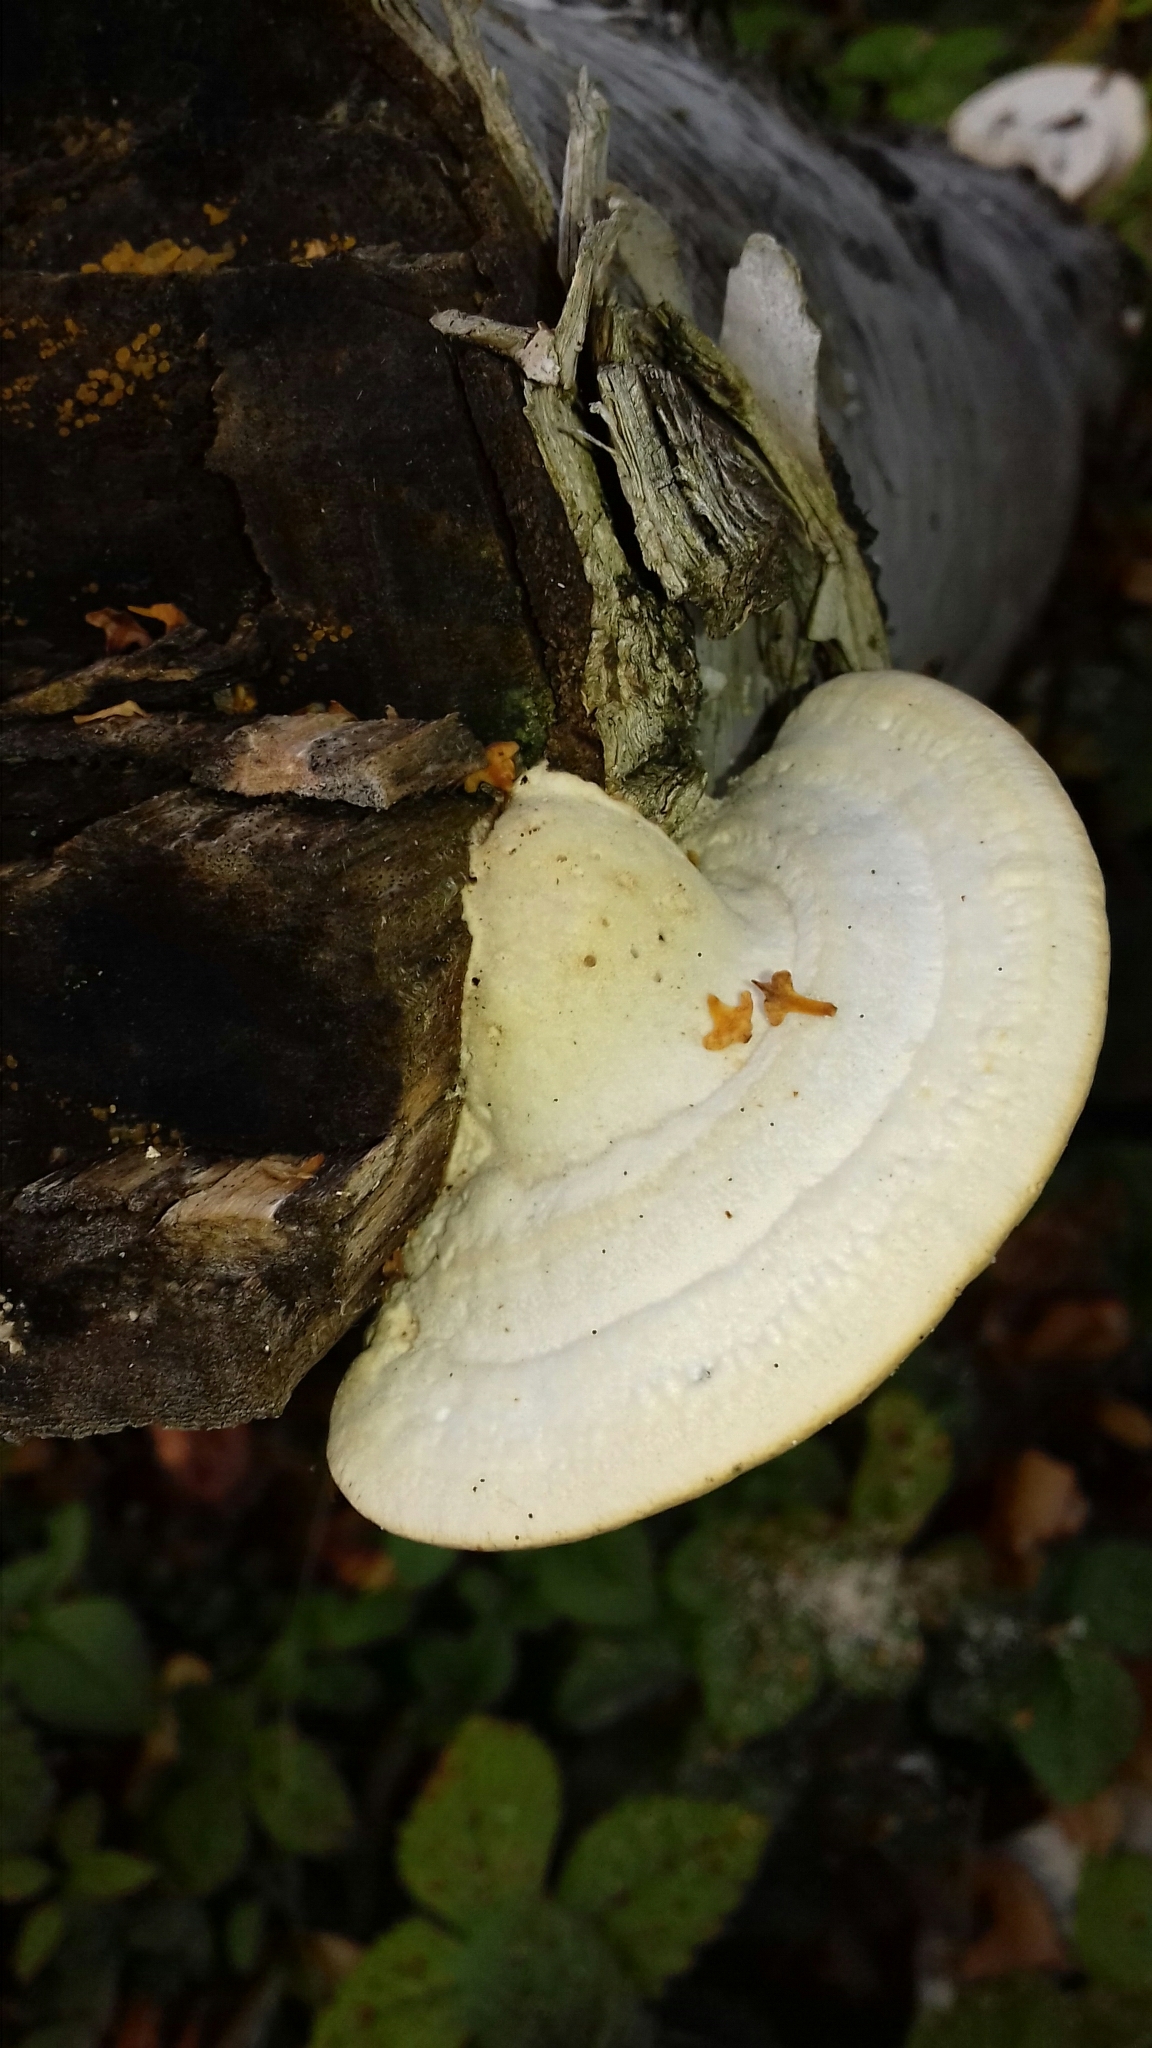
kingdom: Fungi
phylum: Basidiomycota
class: Agaricomycetes
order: Polyporales
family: Polyporaceae
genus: Trametes
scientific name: Trametes gibbosa
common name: Lumpy bracket
